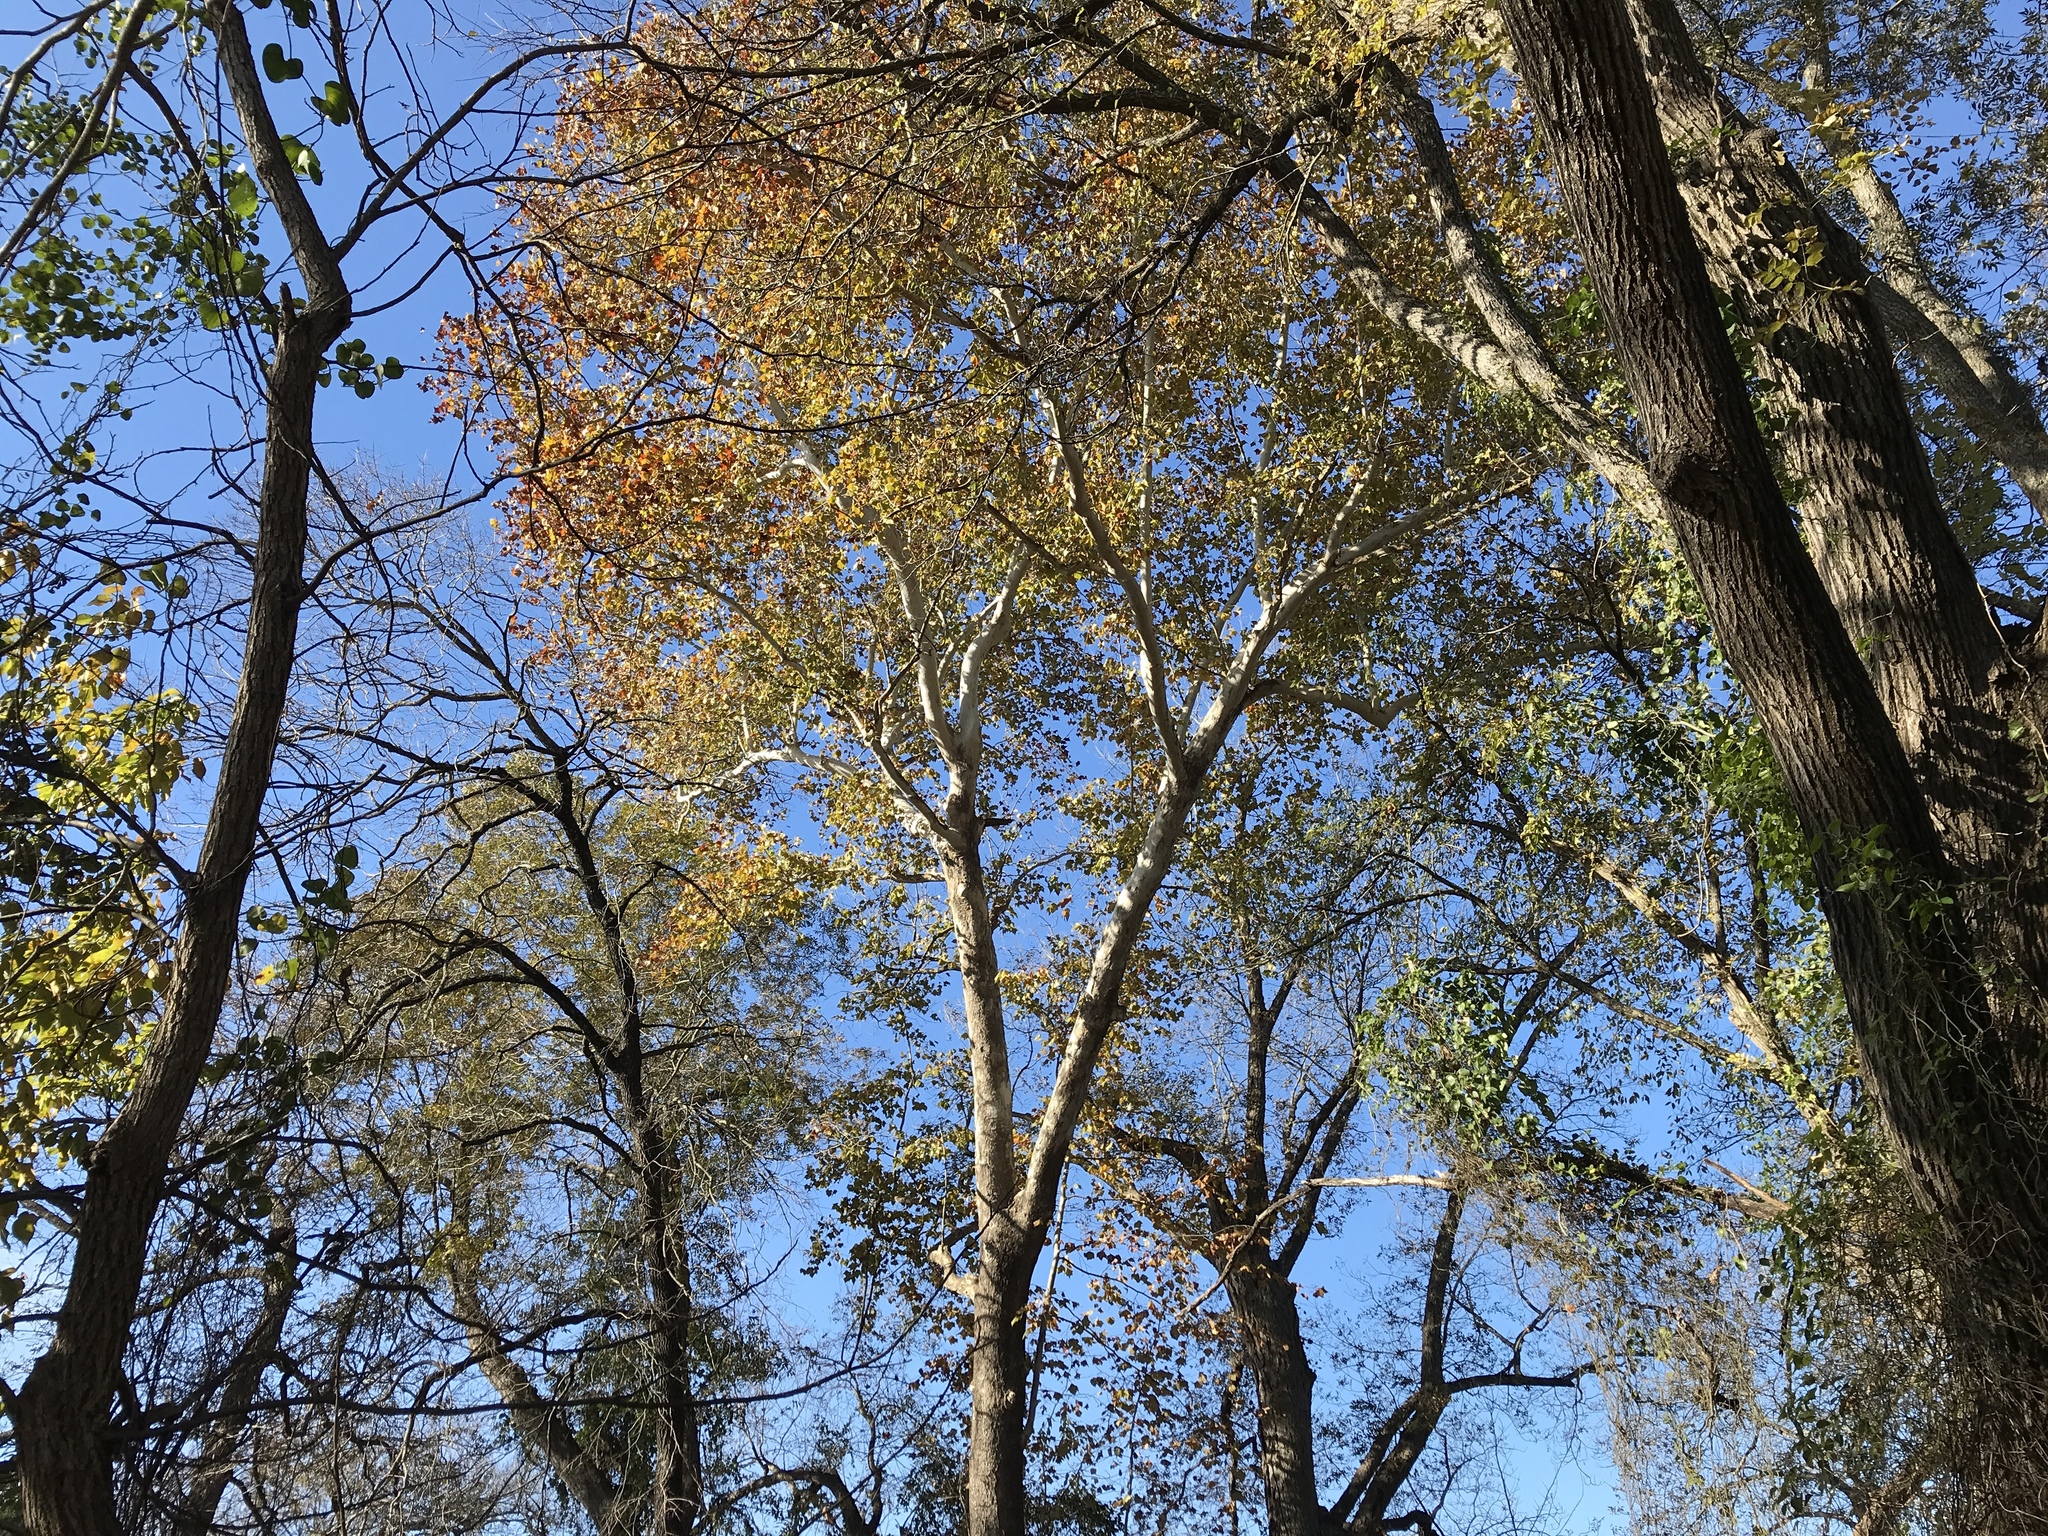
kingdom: Plantae
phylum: Tracheophyta
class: Magnoliopsida
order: Proteales
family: Platanaceae
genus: Platanus
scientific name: Platanus occidentalis
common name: American sycamore
